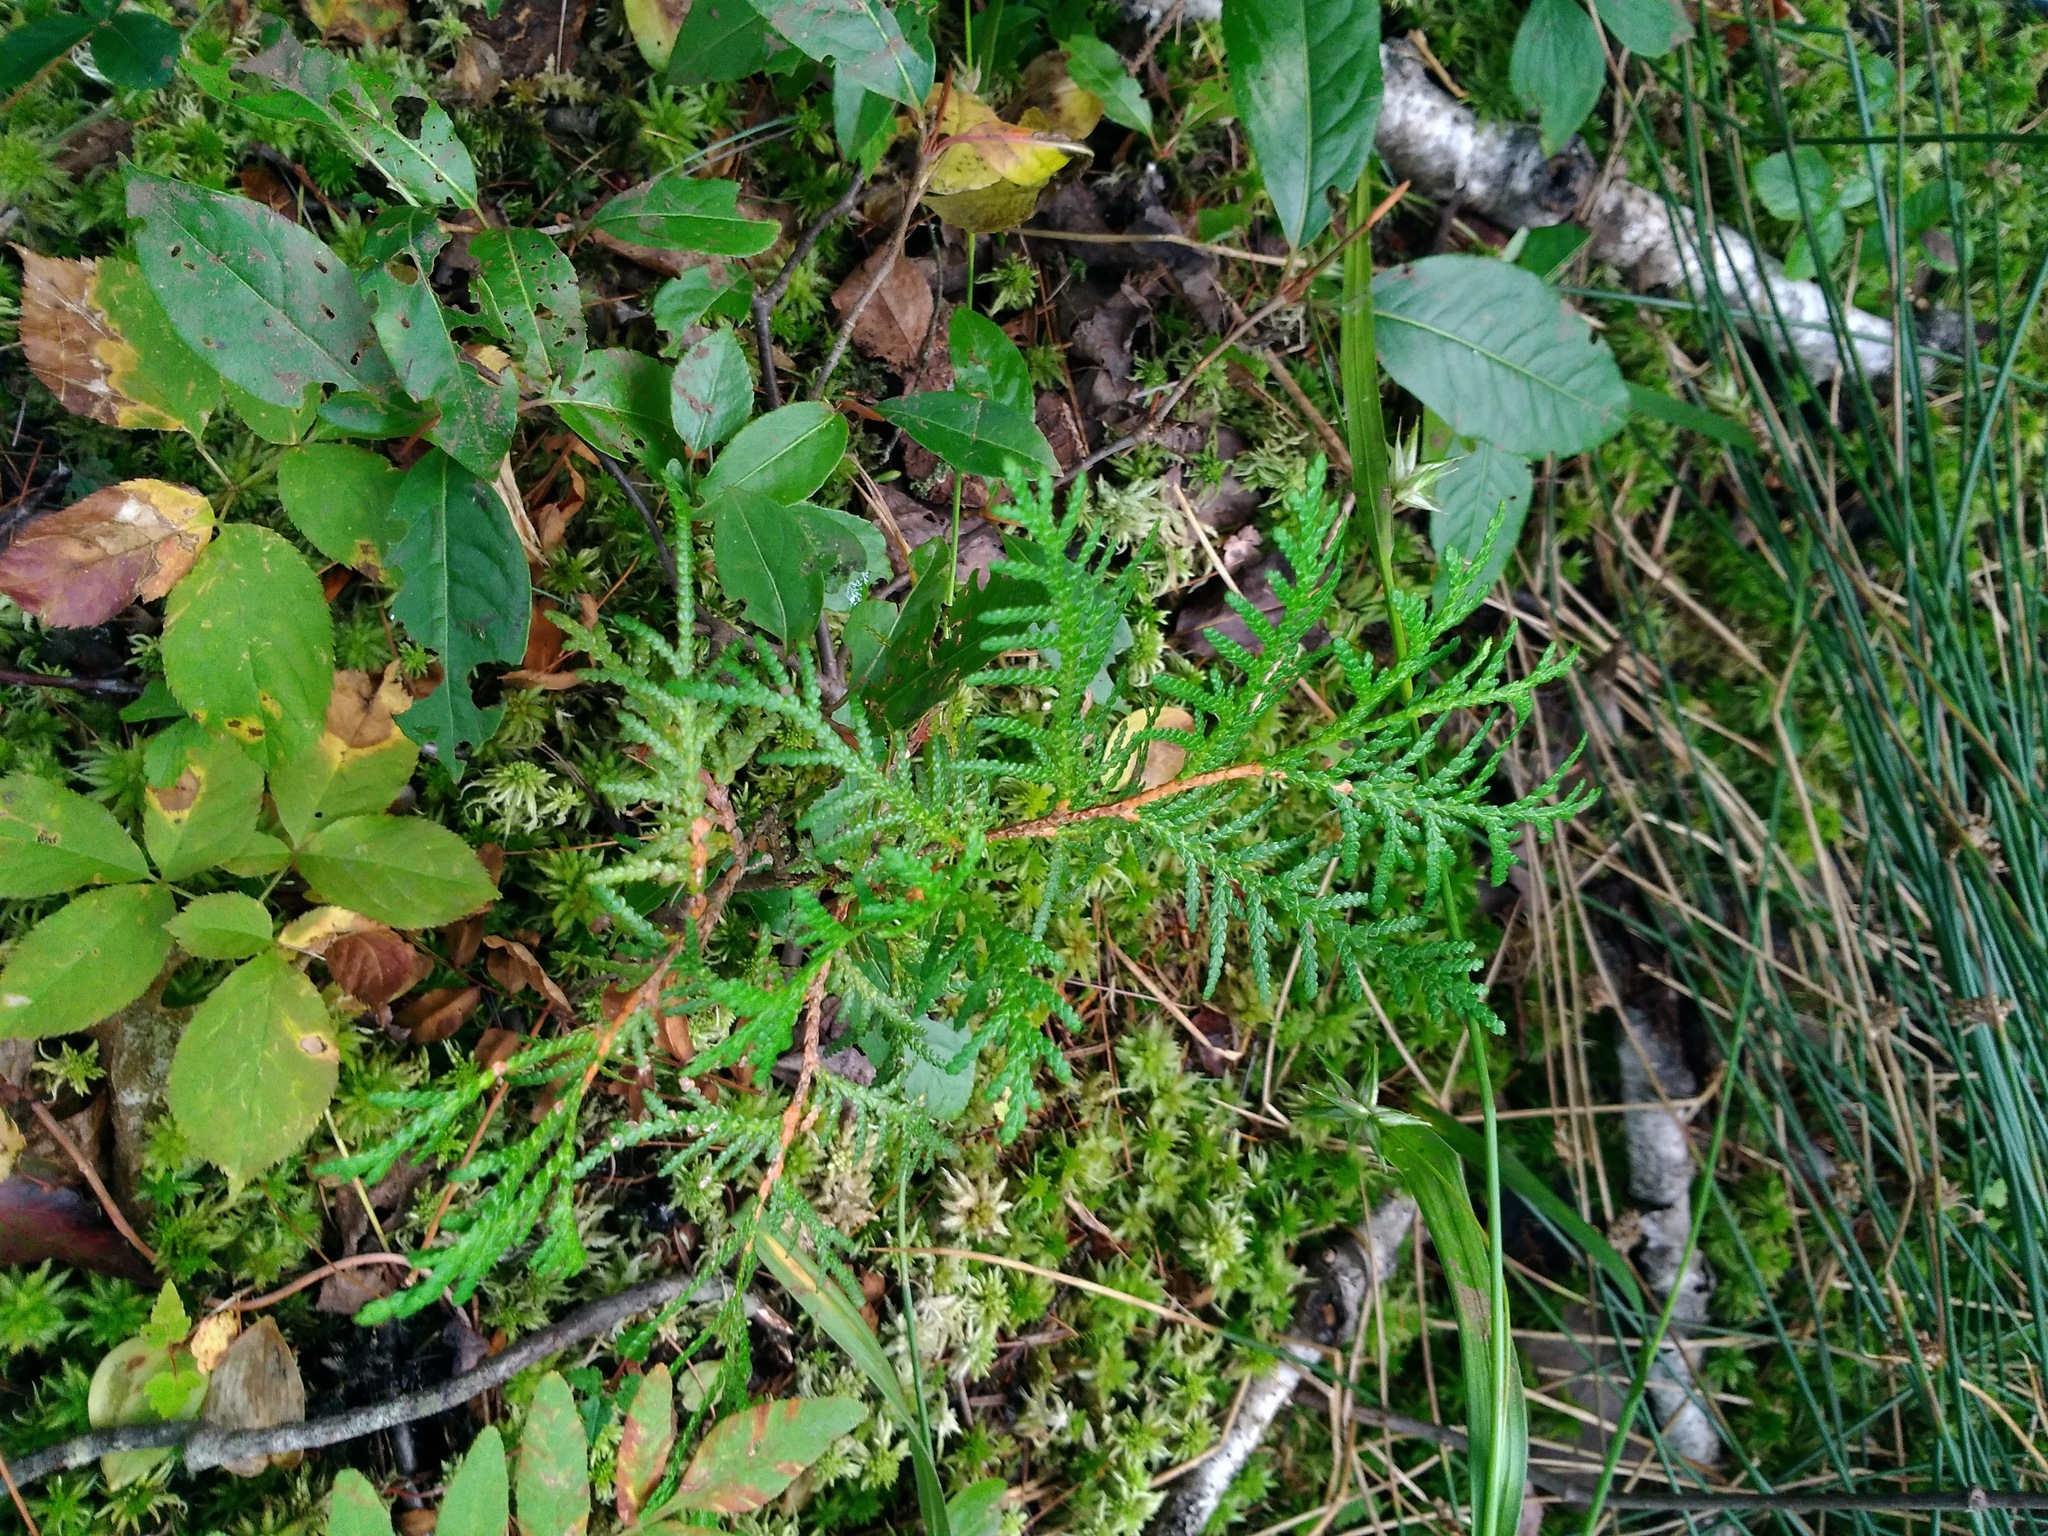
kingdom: Plantae
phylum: Tracheophyta
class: Pinopsida
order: Pinales
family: Cupressaceae
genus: Thuja
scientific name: Thuja occidentalis
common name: Northern white-cedar
